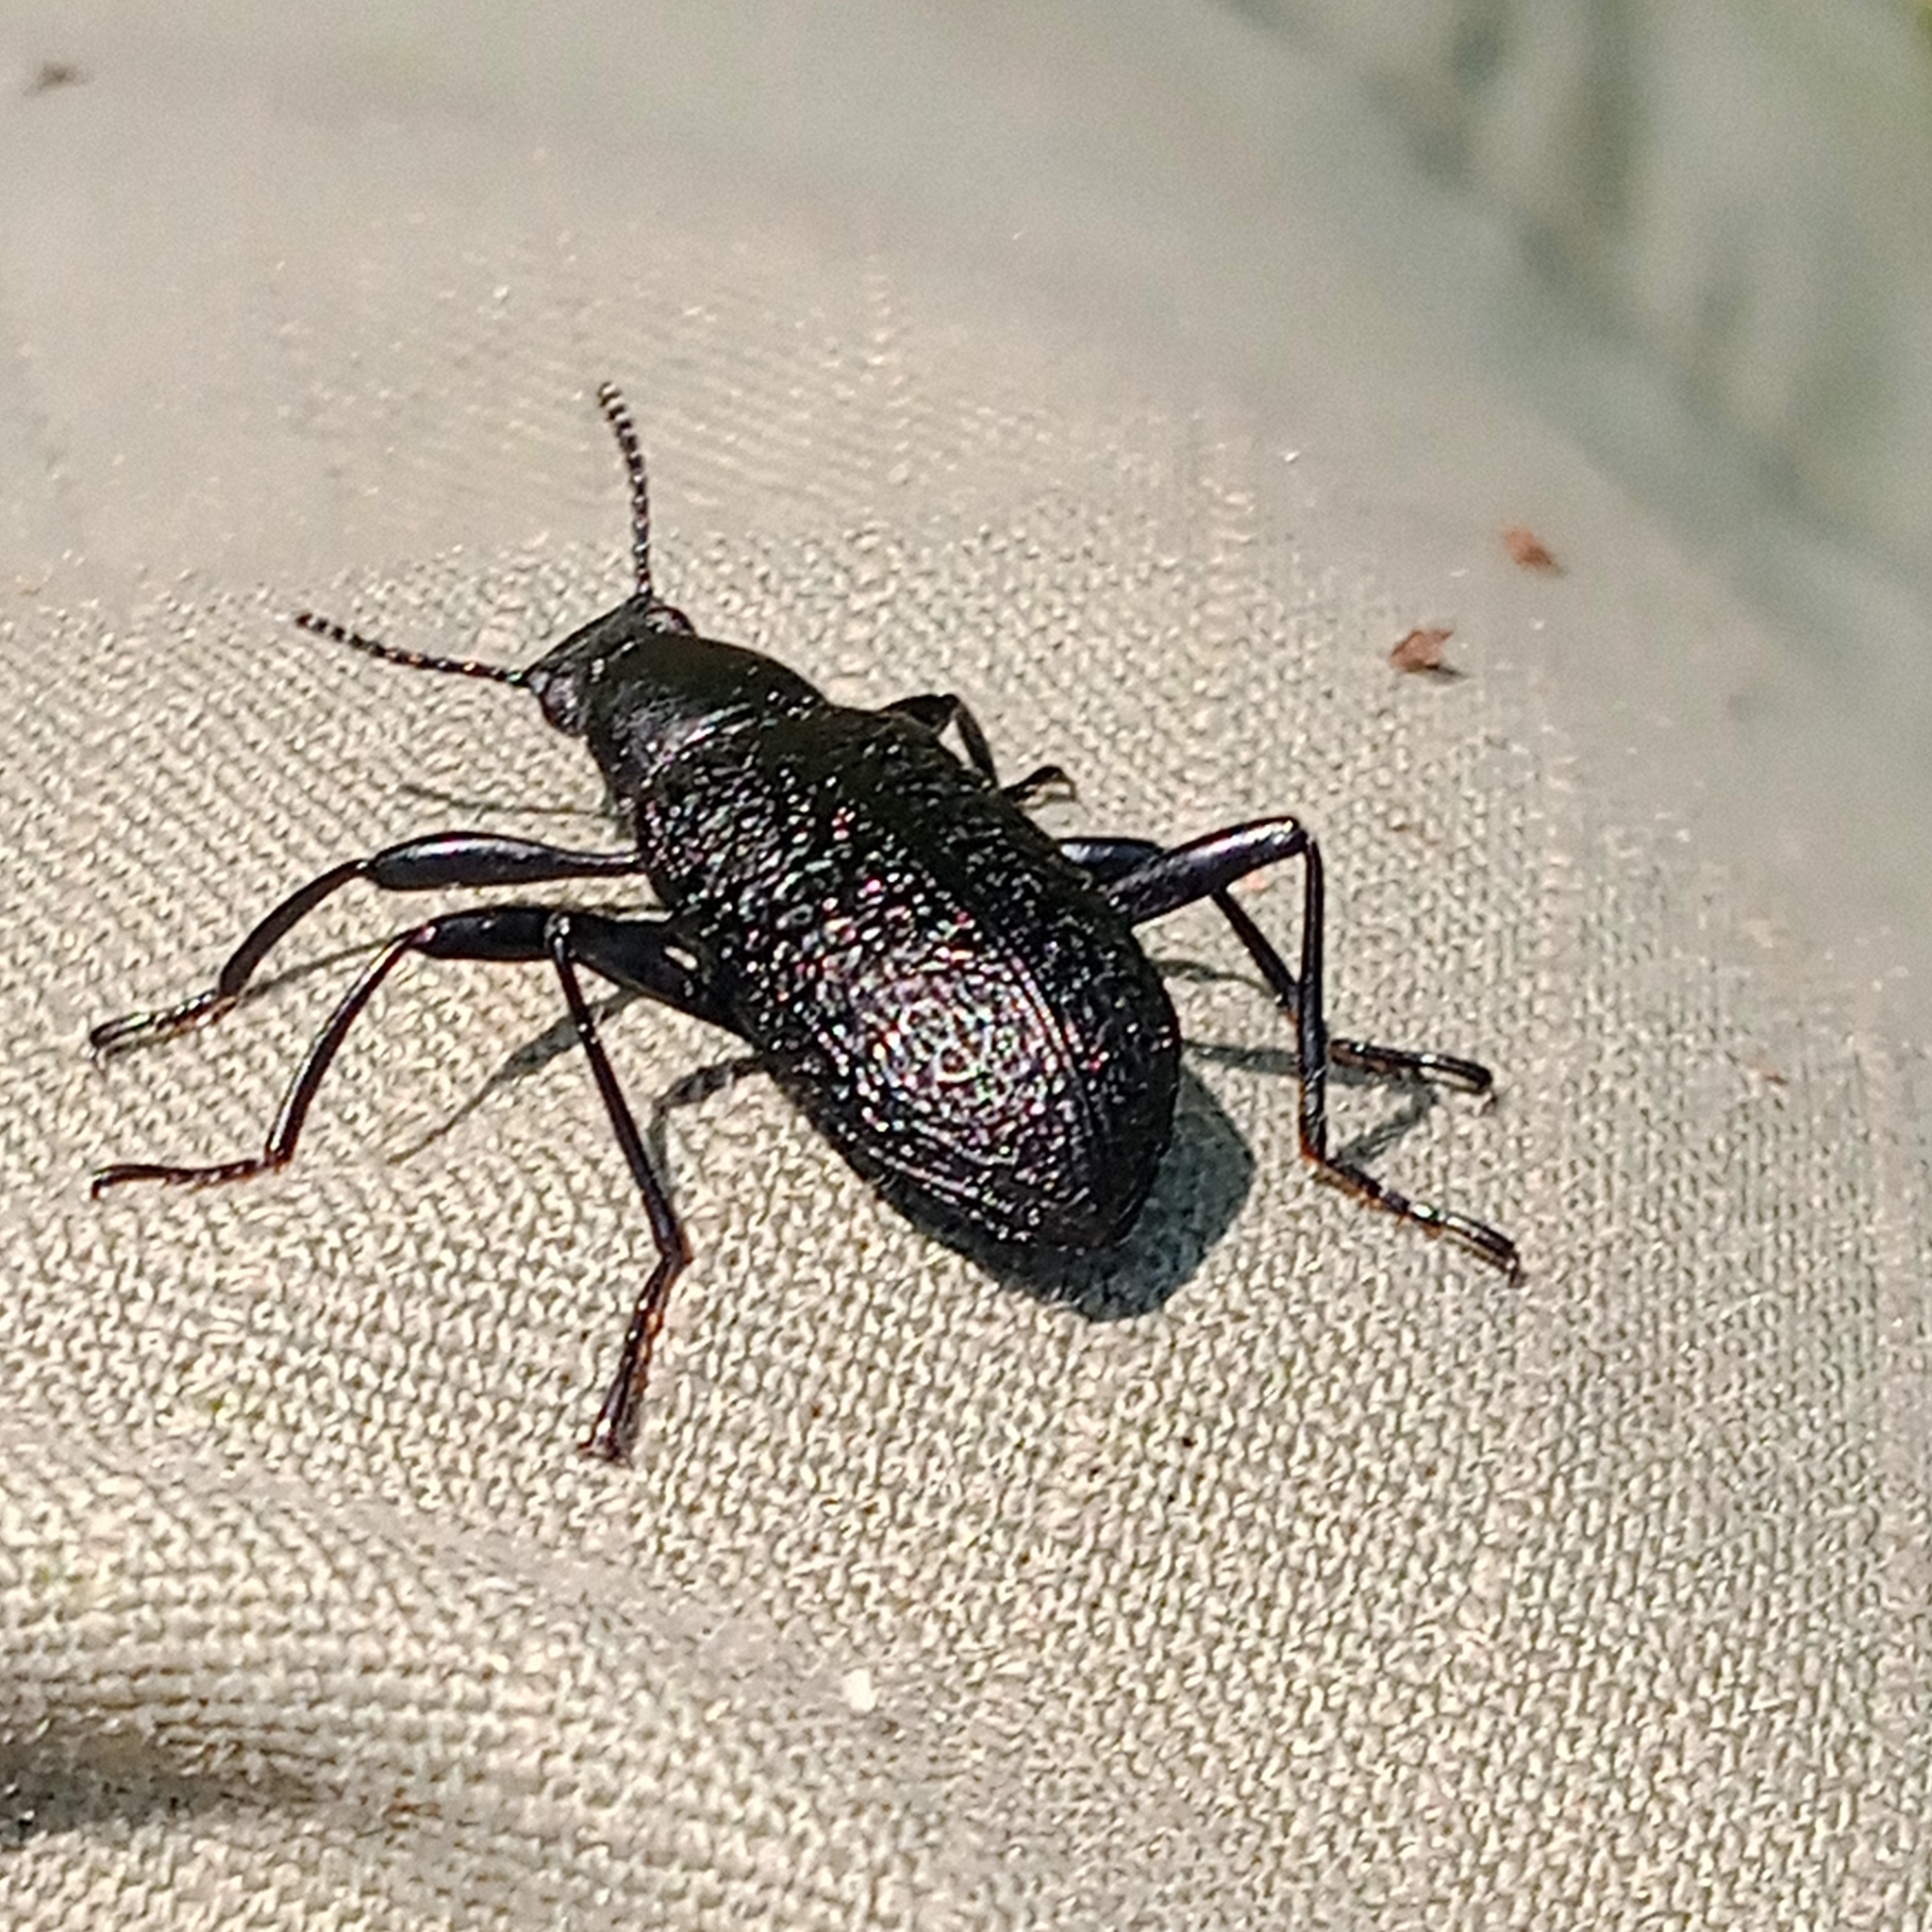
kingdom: Animalia
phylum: Arthropoda
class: Insecta
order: Coleoptera
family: Tenebrionidae
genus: Upis
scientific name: Upis ceramboides
